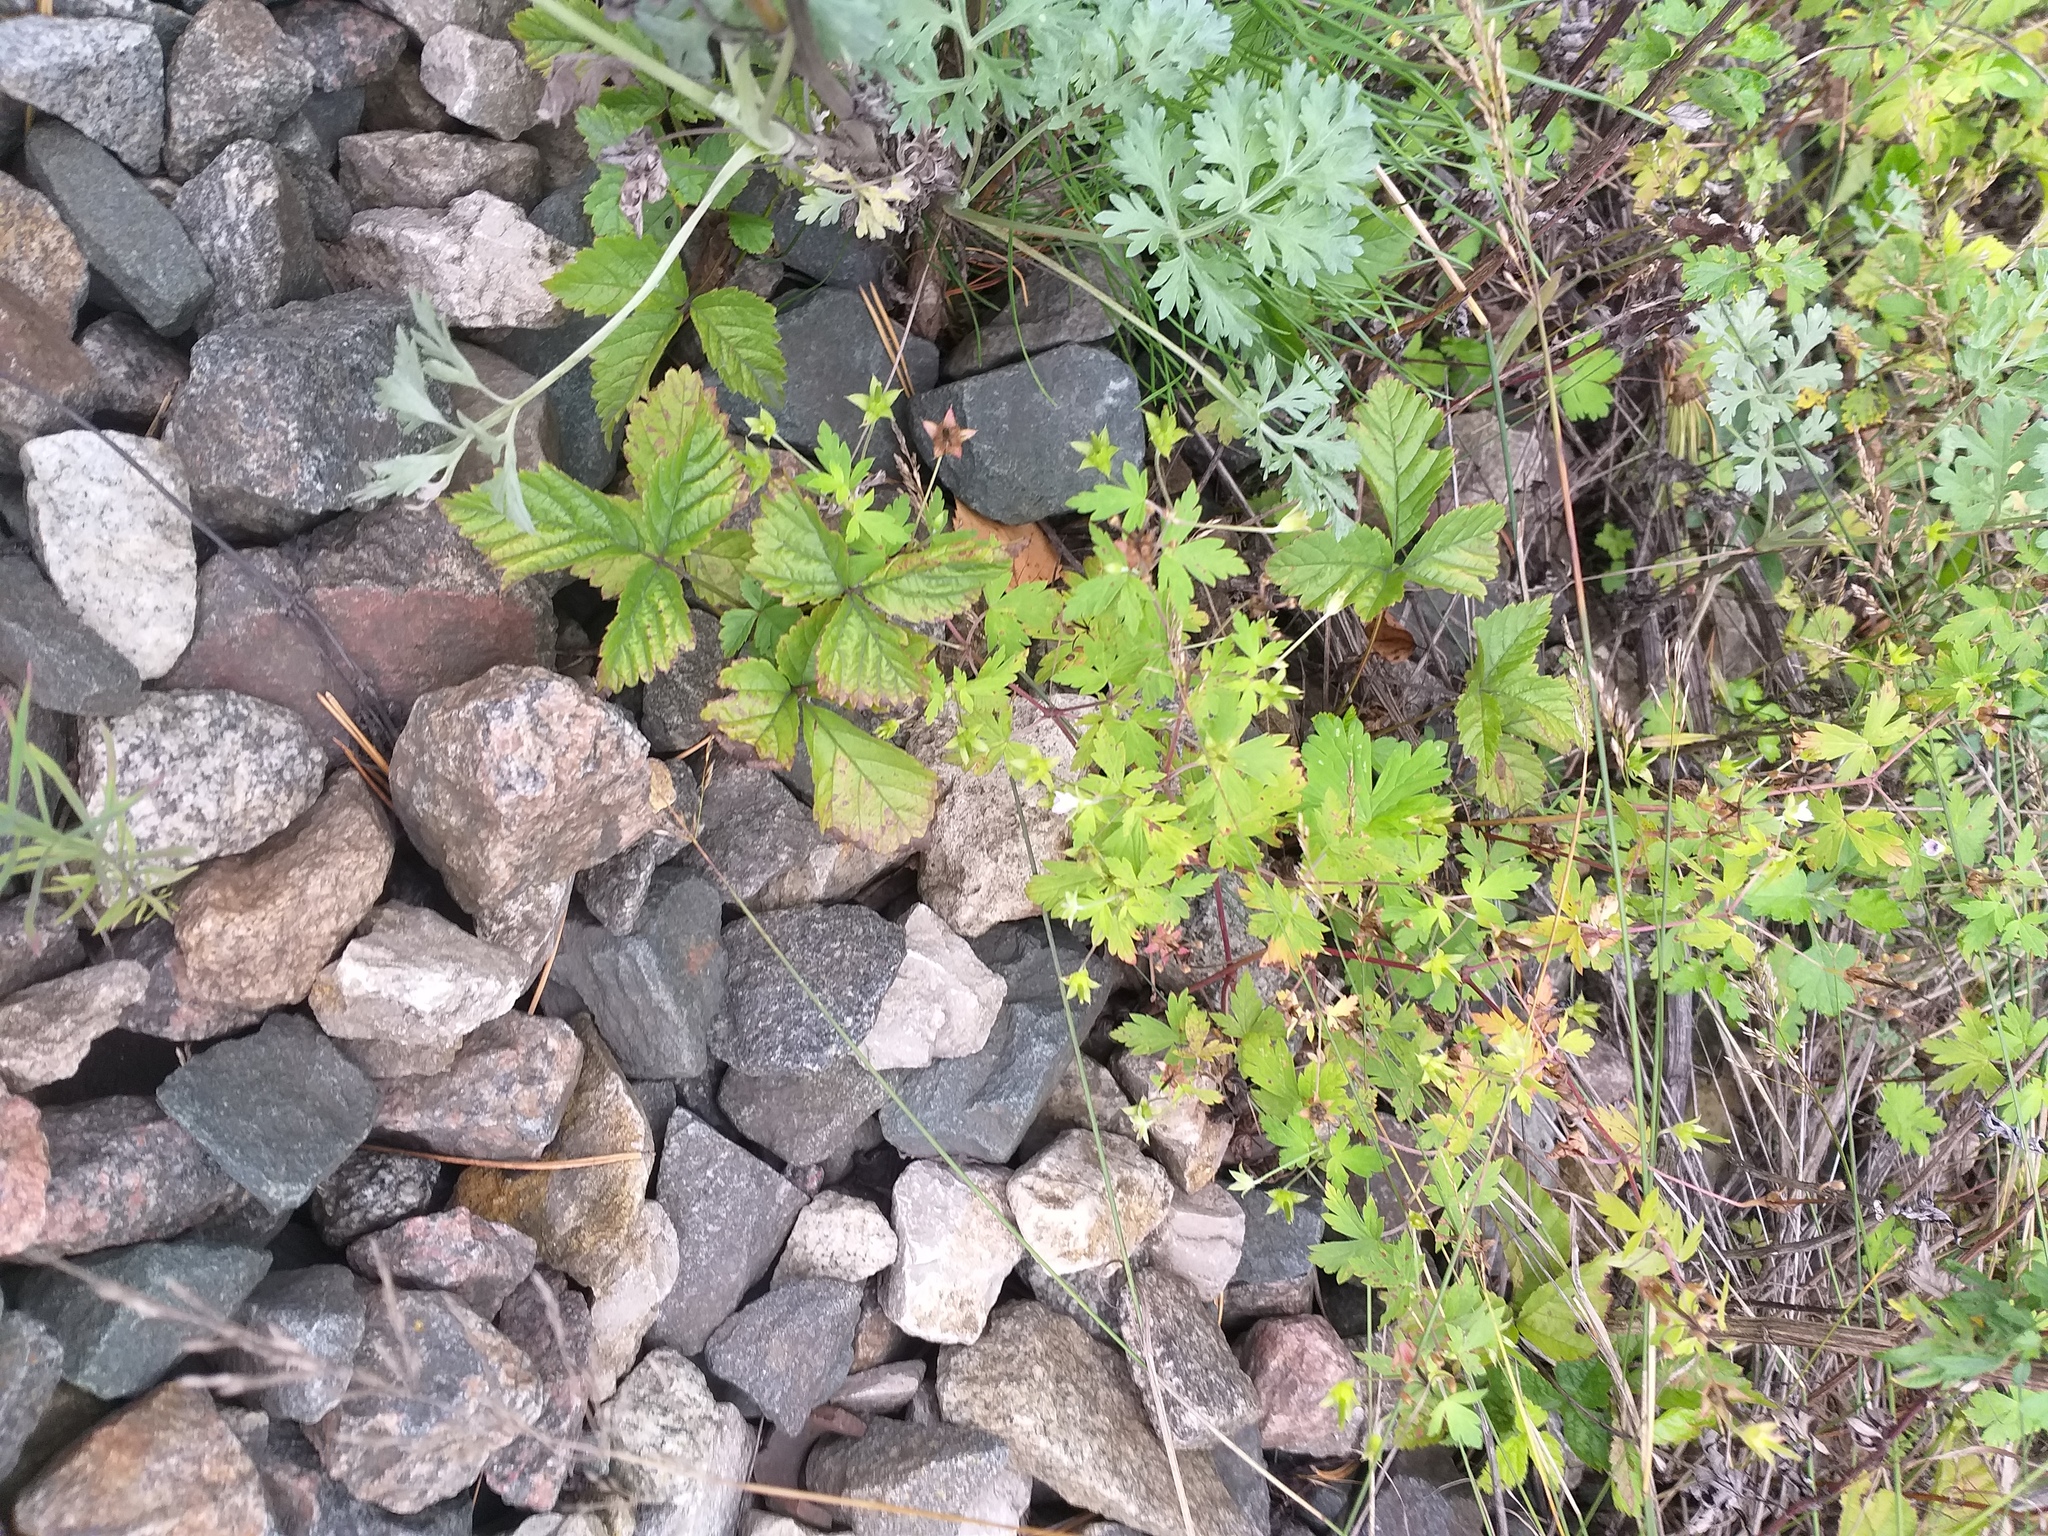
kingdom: Plantae
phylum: Tracheophyta
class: Magnoliopsida
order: Rosales
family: Rosaceae
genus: Rubus
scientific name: Rubus saxatilis
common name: Stone bramble
